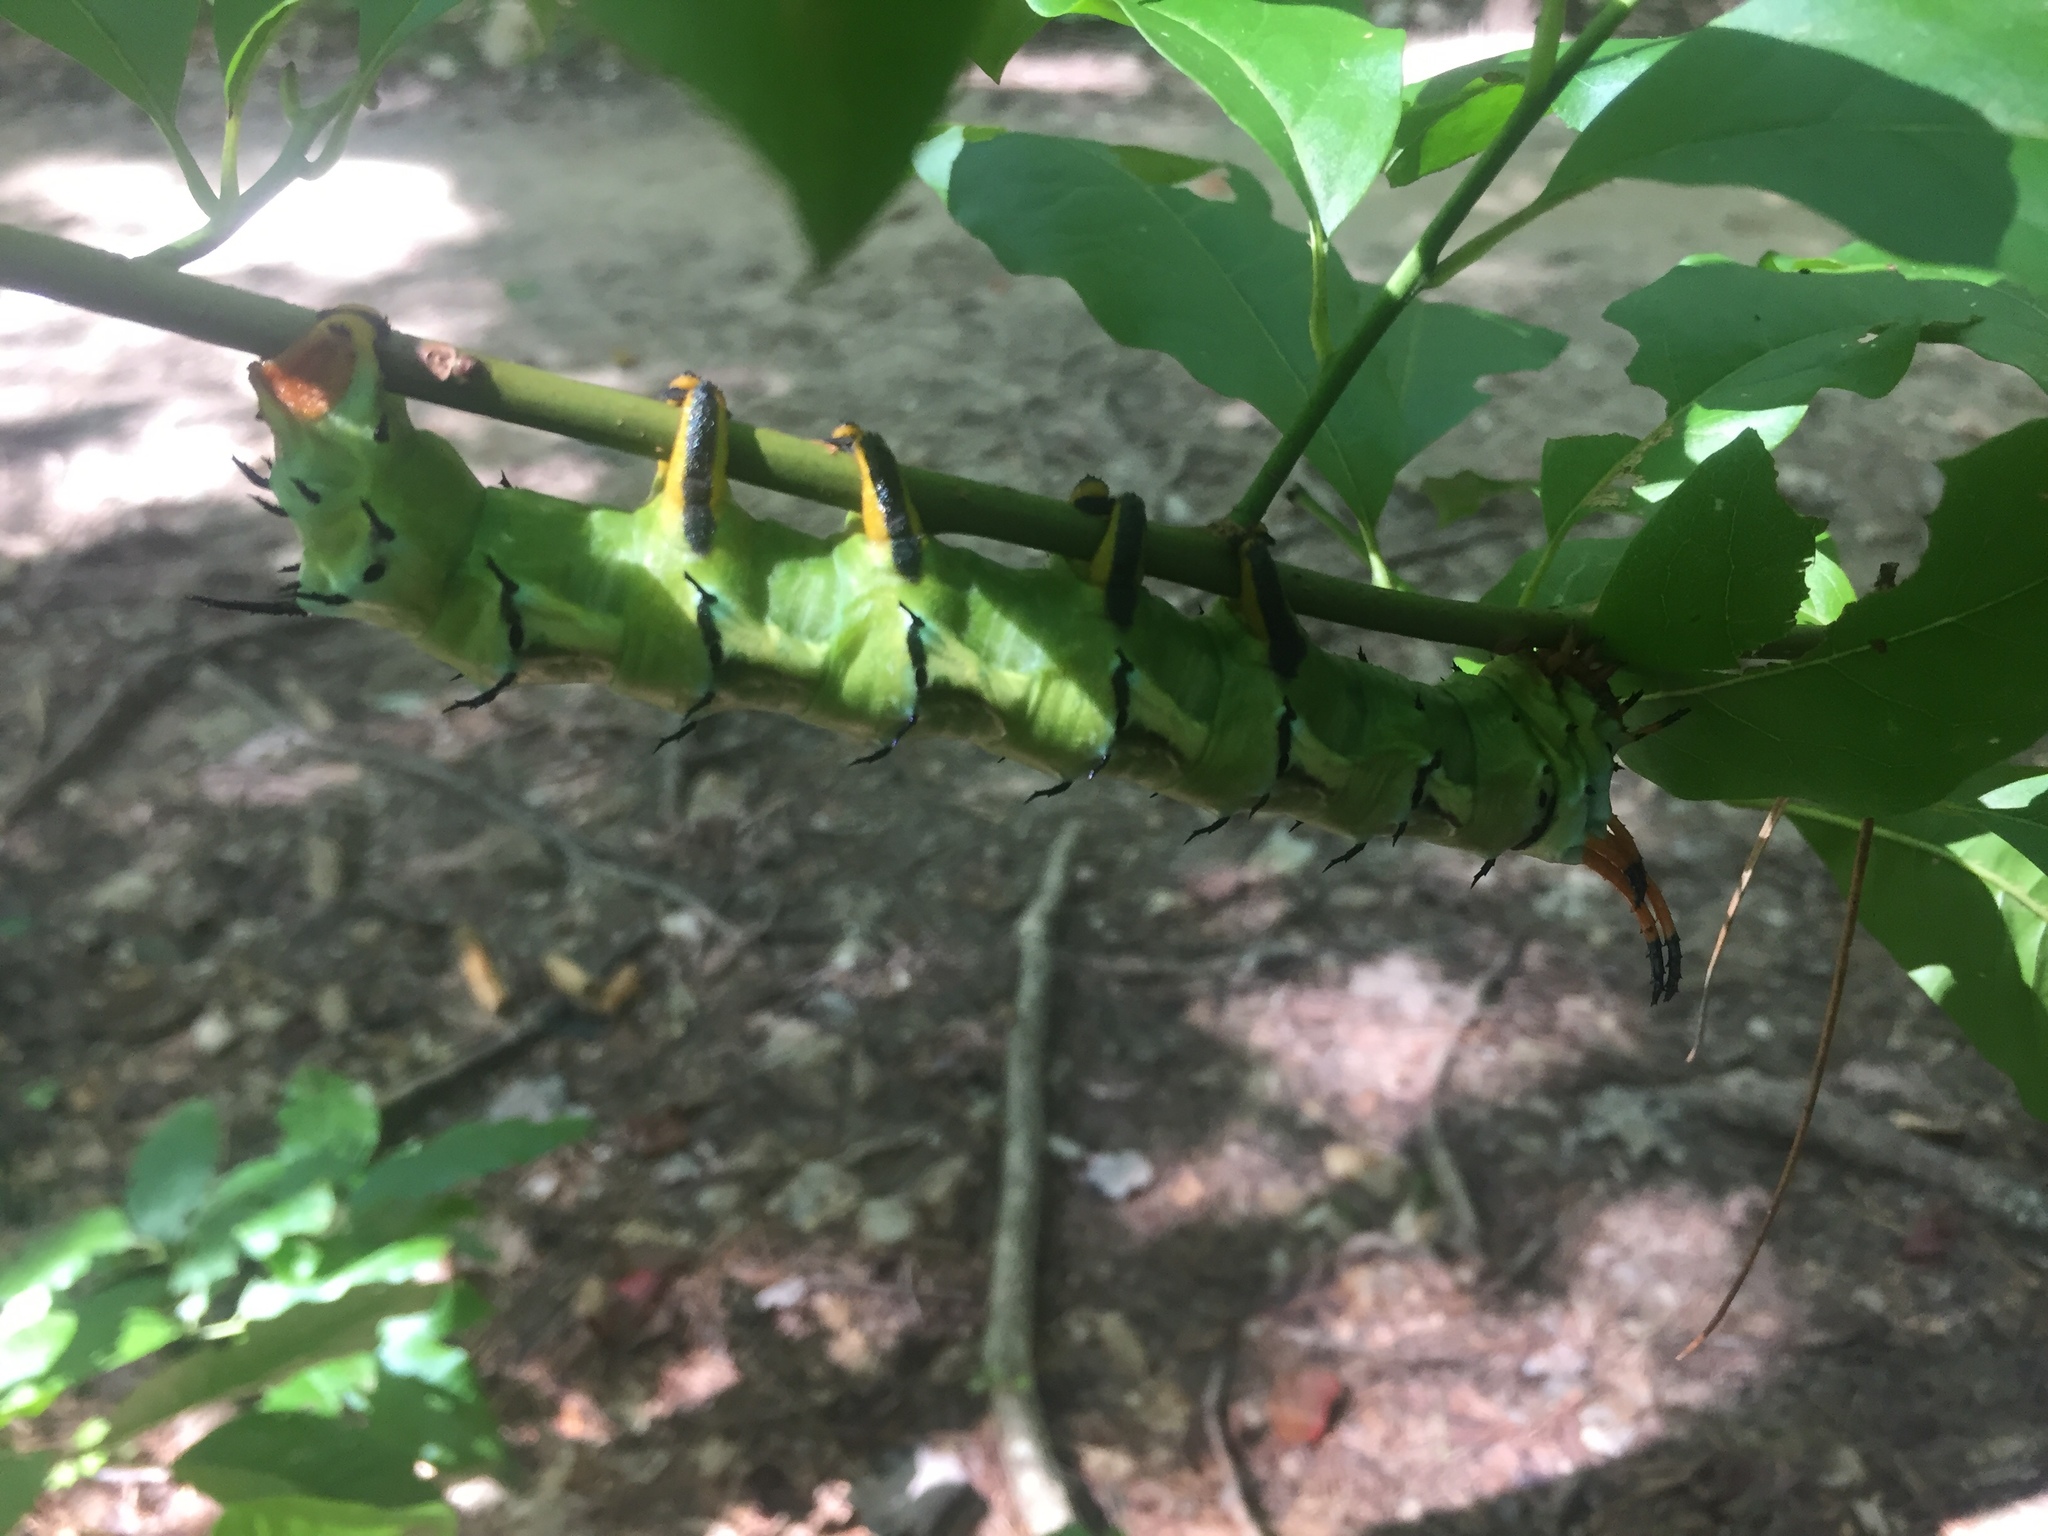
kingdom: Animalia
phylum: Arthropoda
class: Insecta
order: Lepidoptera
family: Saturniidae
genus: Citheronia
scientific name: Citheronia regalis
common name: Hickory horned devil
